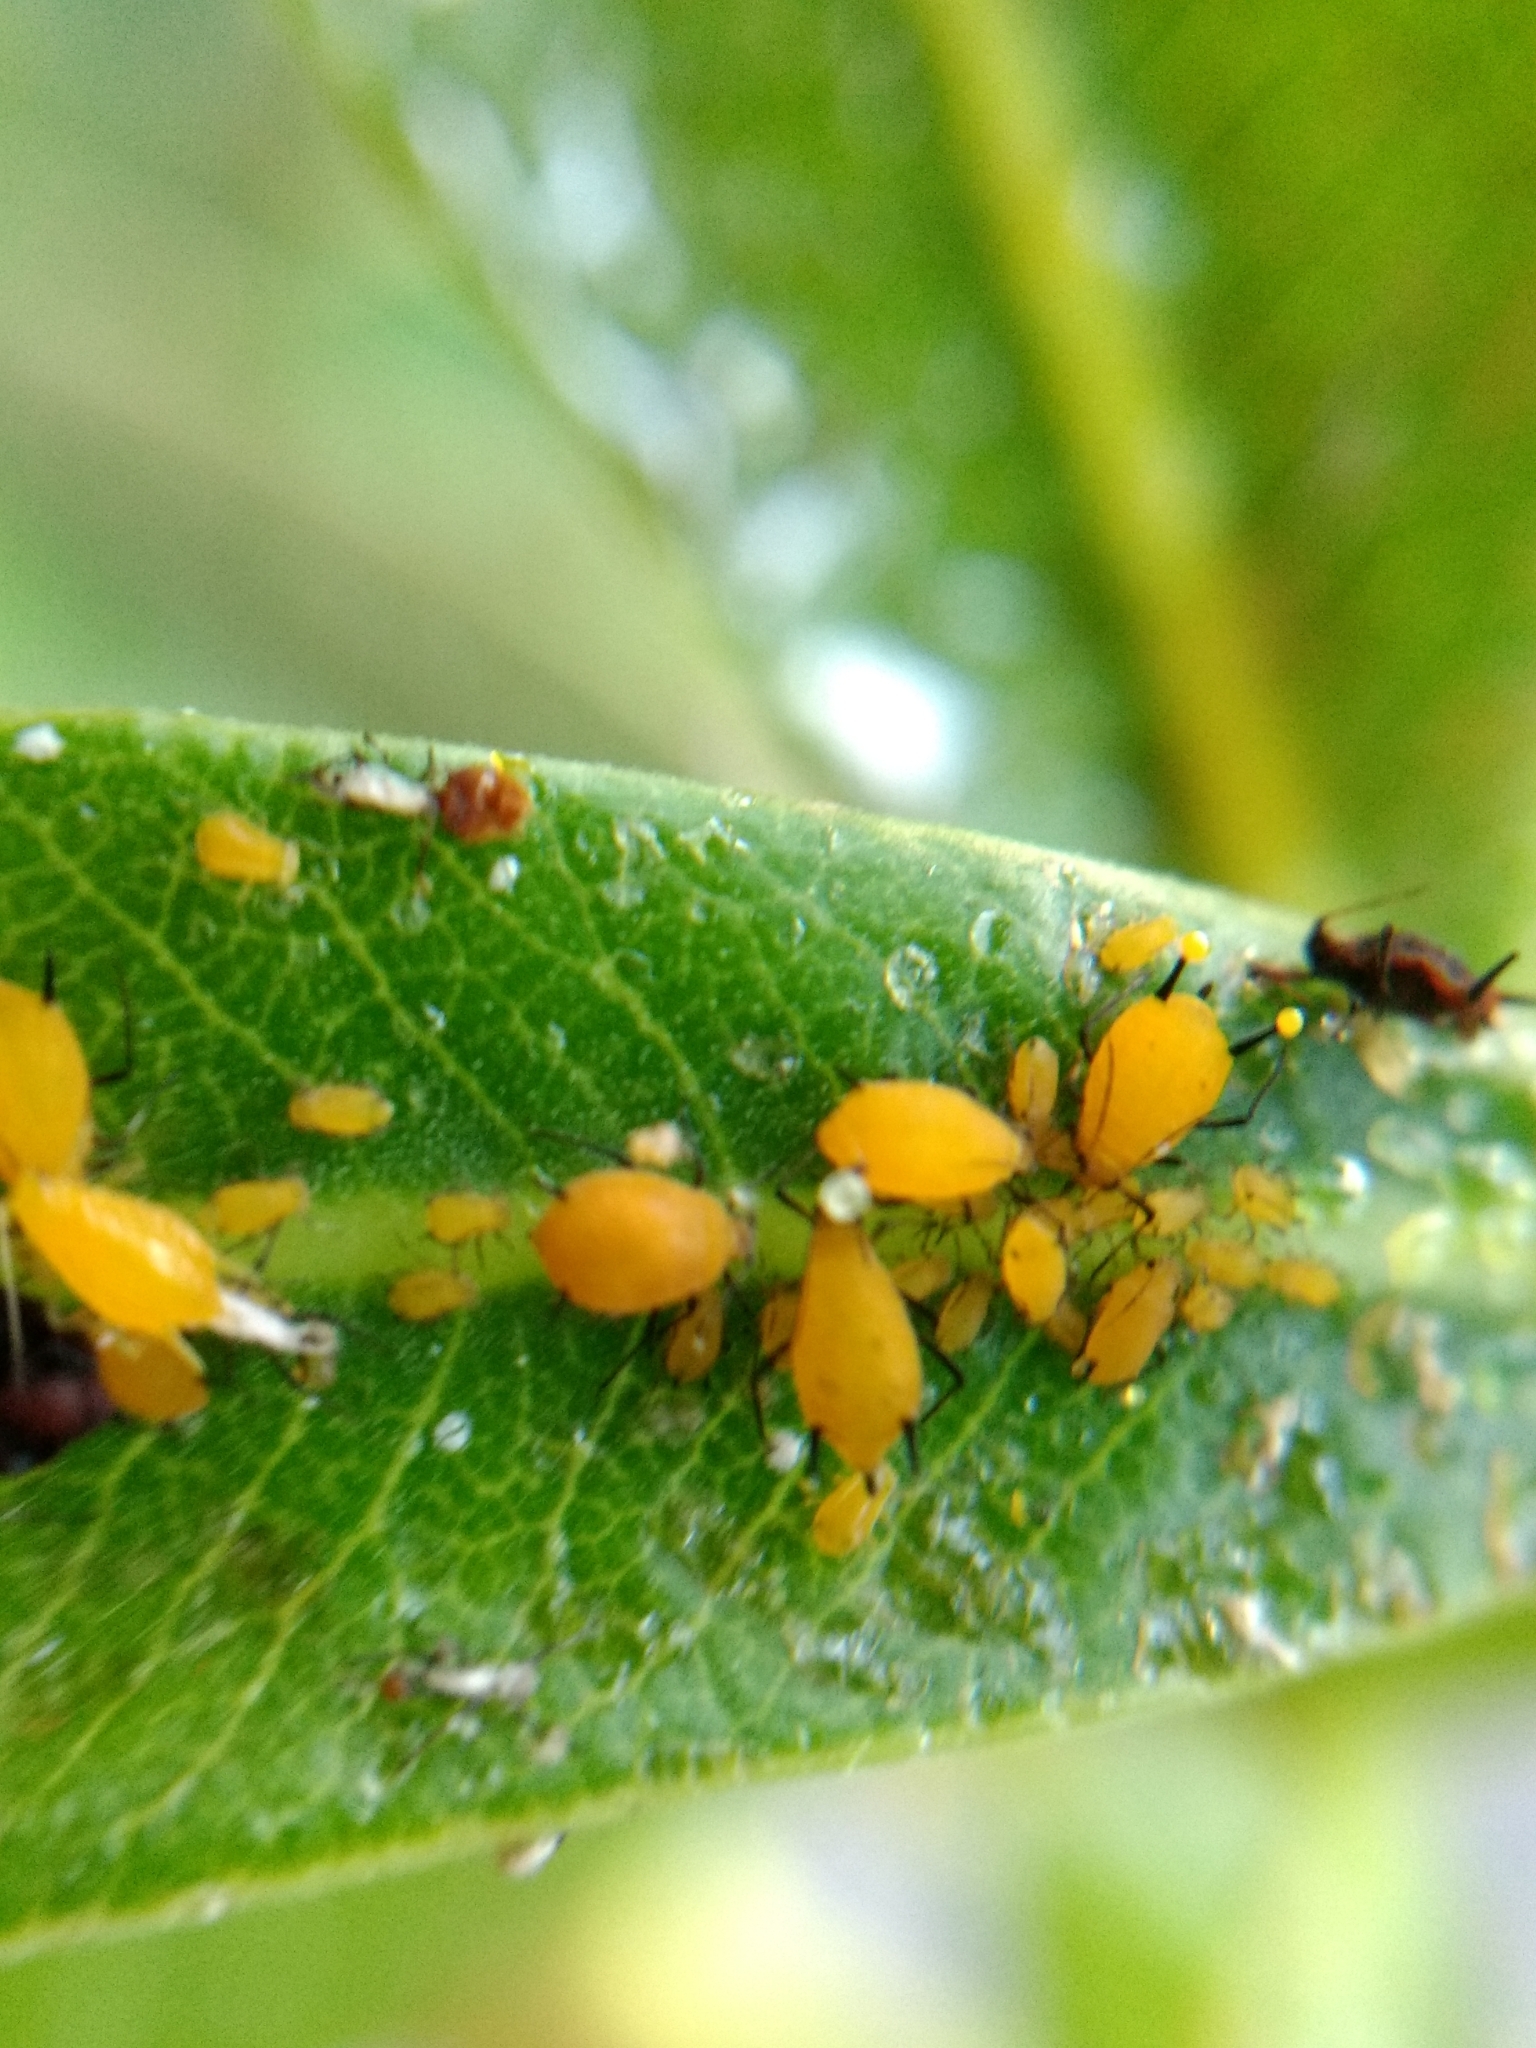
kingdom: Animalia
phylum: Arthropoda
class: Insecta
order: Hemiptera
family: Aphididae
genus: Aphis
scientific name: Aphis nerii
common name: Oleander aphid
